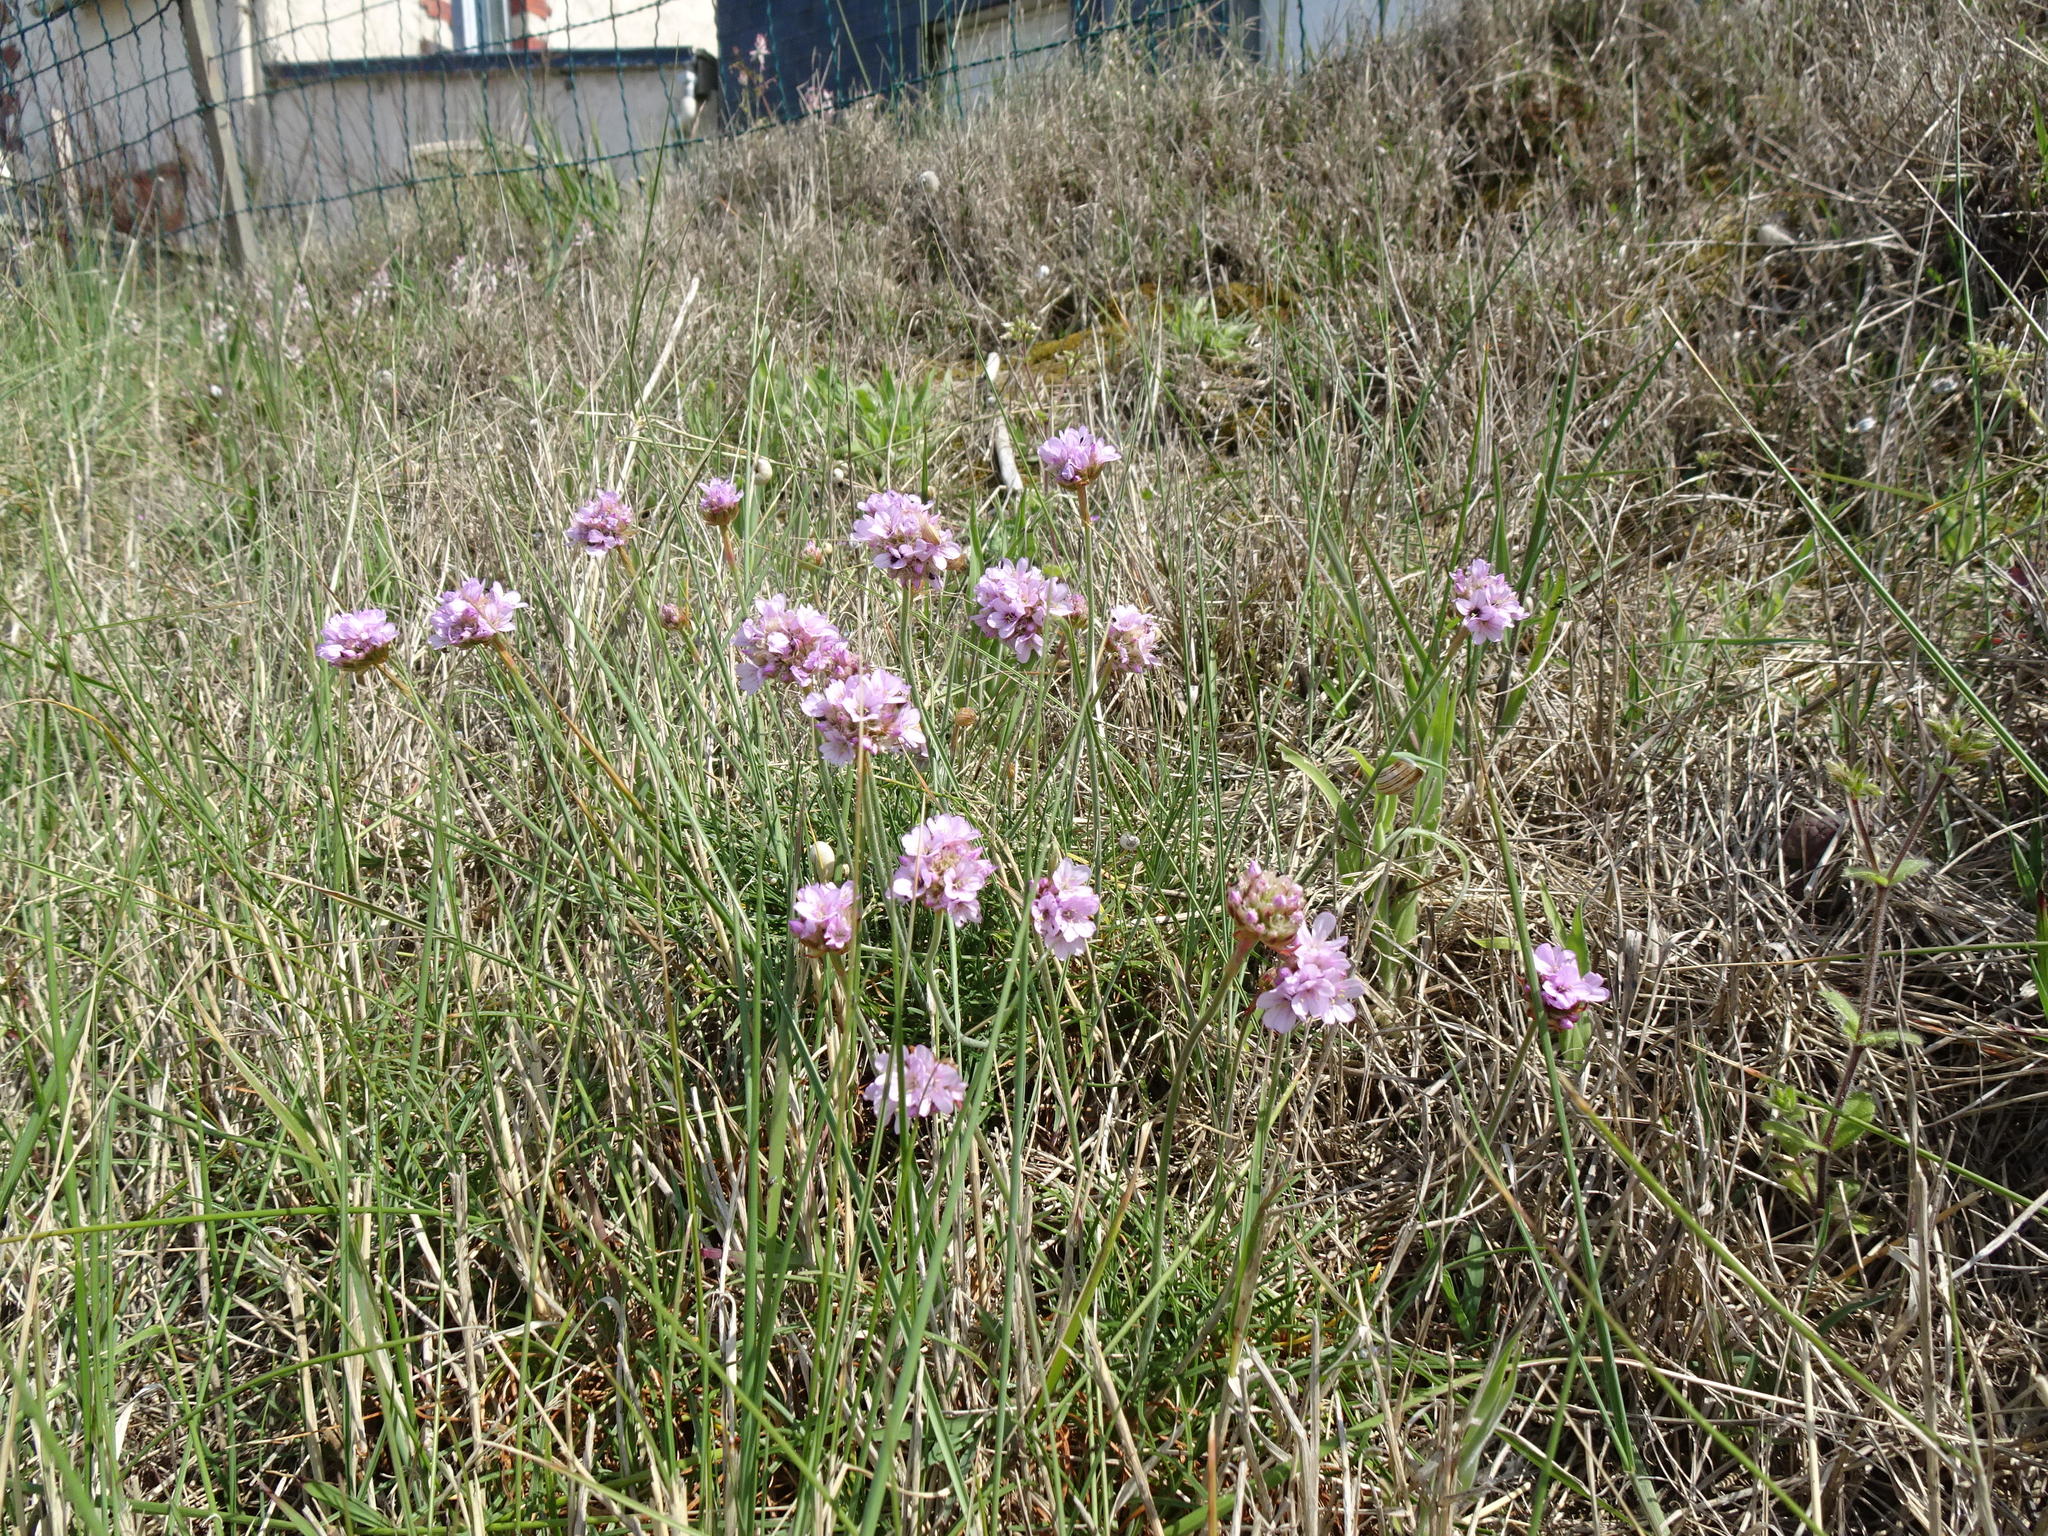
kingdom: Plantae
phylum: Tracheophyta
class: Magnoliopsida
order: Caryophyllales
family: Plumbaginaceae
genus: Armeria
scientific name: Armeria maritima
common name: Thrift
